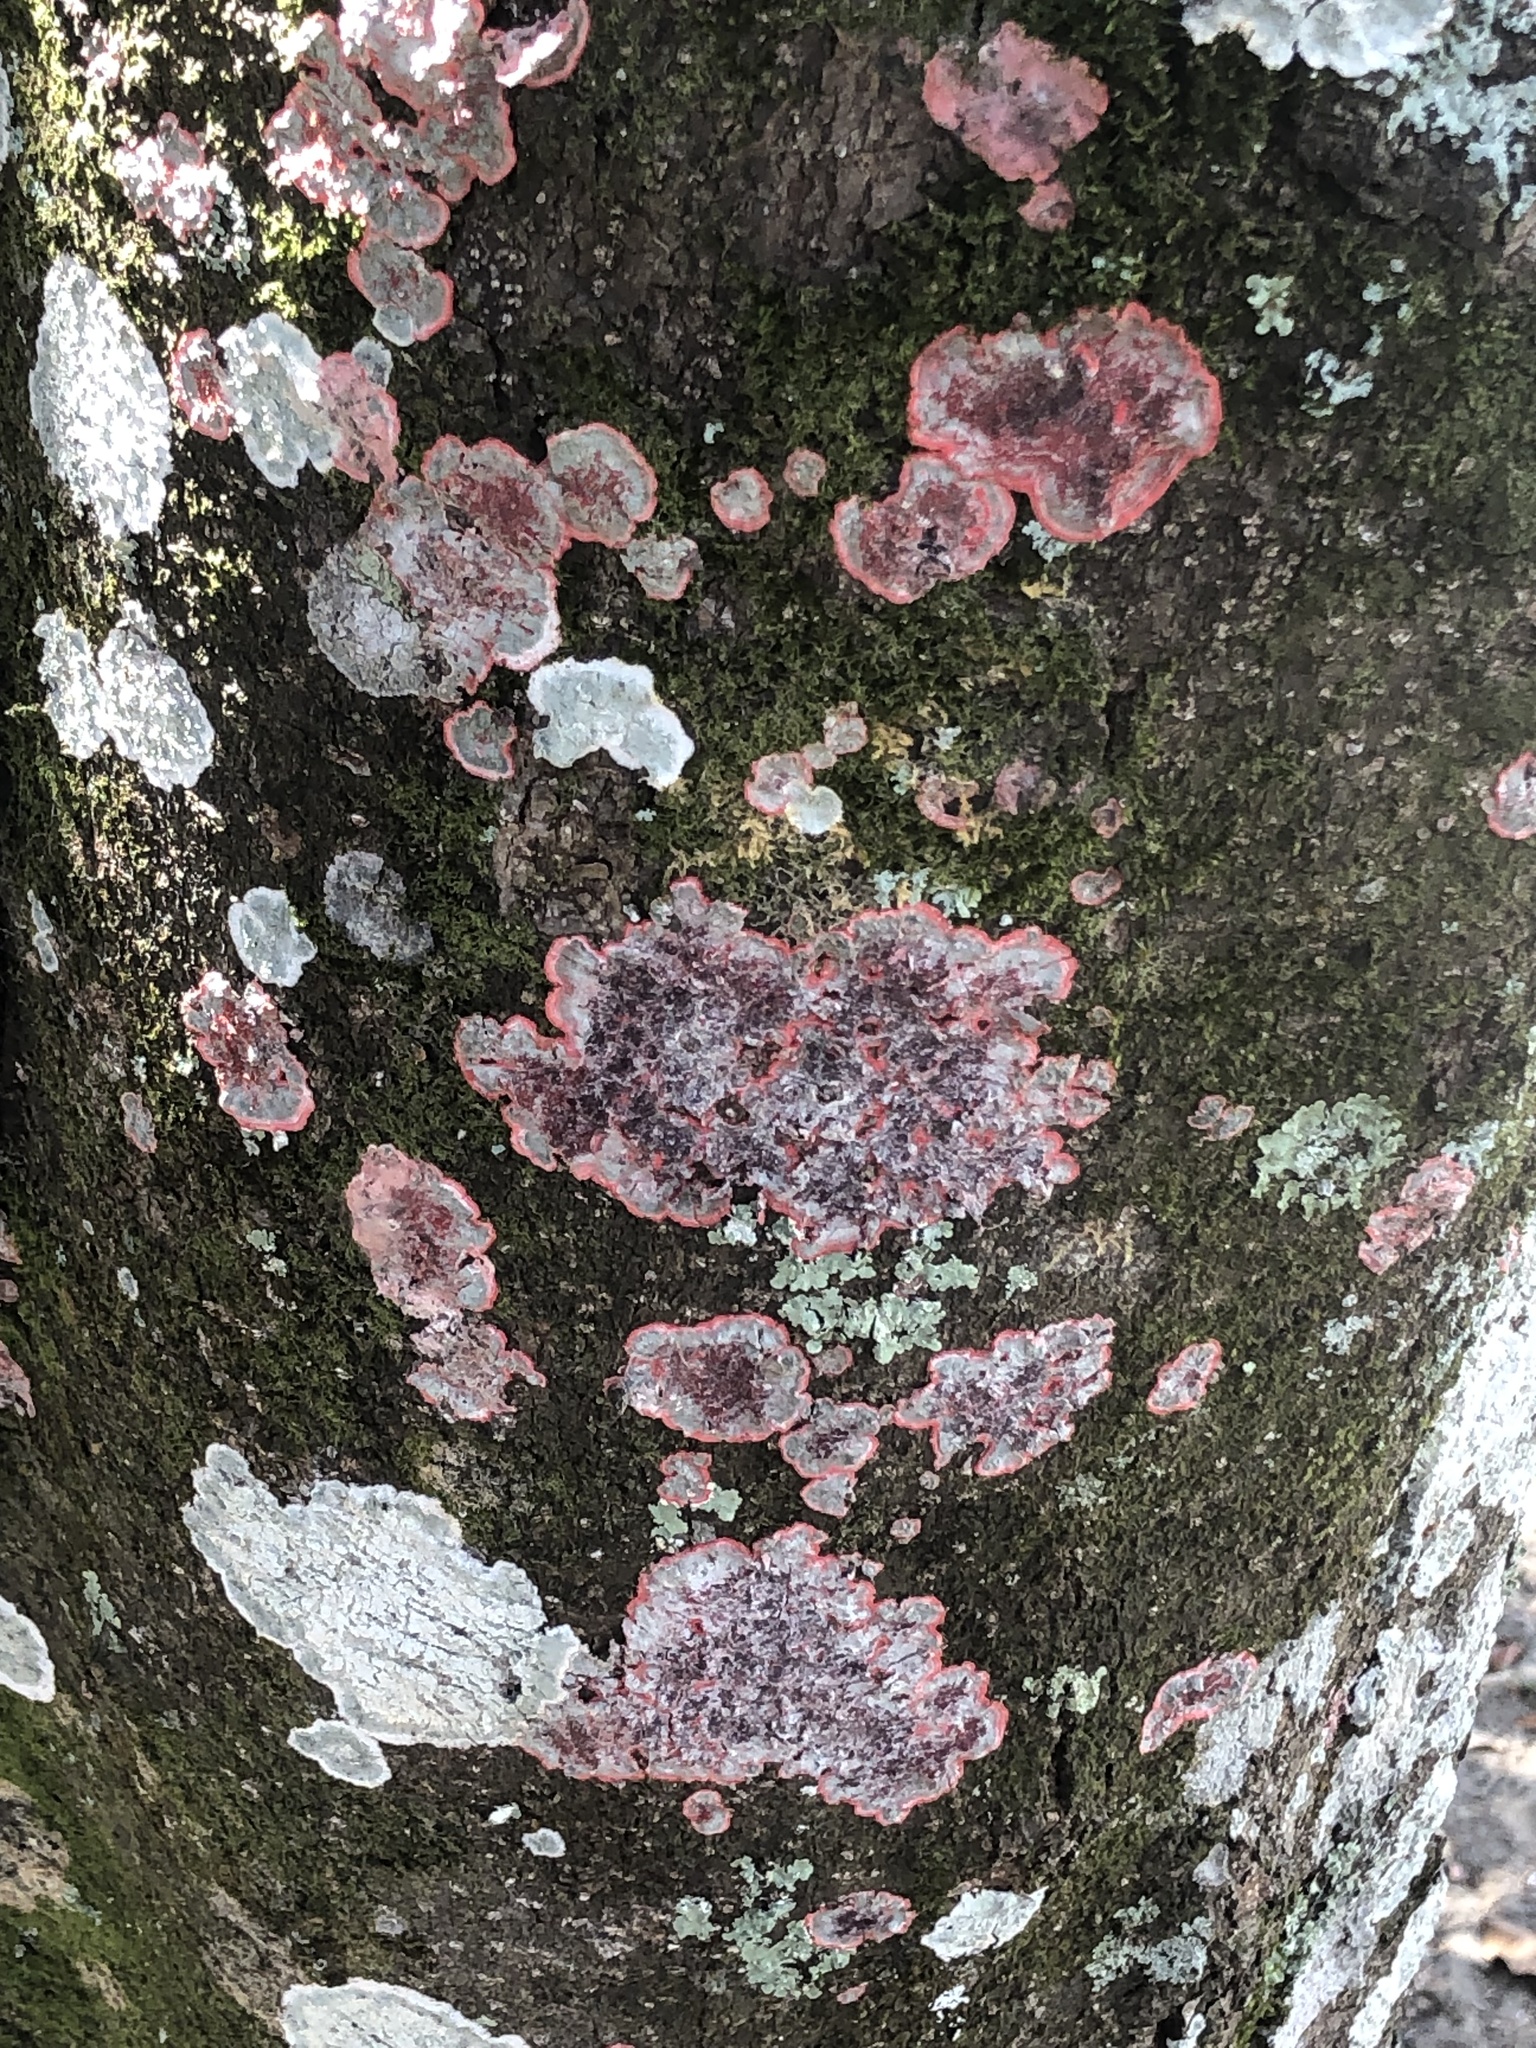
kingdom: Fungi
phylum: Ascomycota
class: Arthoniomycetes
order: Arthoniales
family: Arthoniaceae
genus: Herpothallon
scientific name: Herpothallon rubrocinctum
